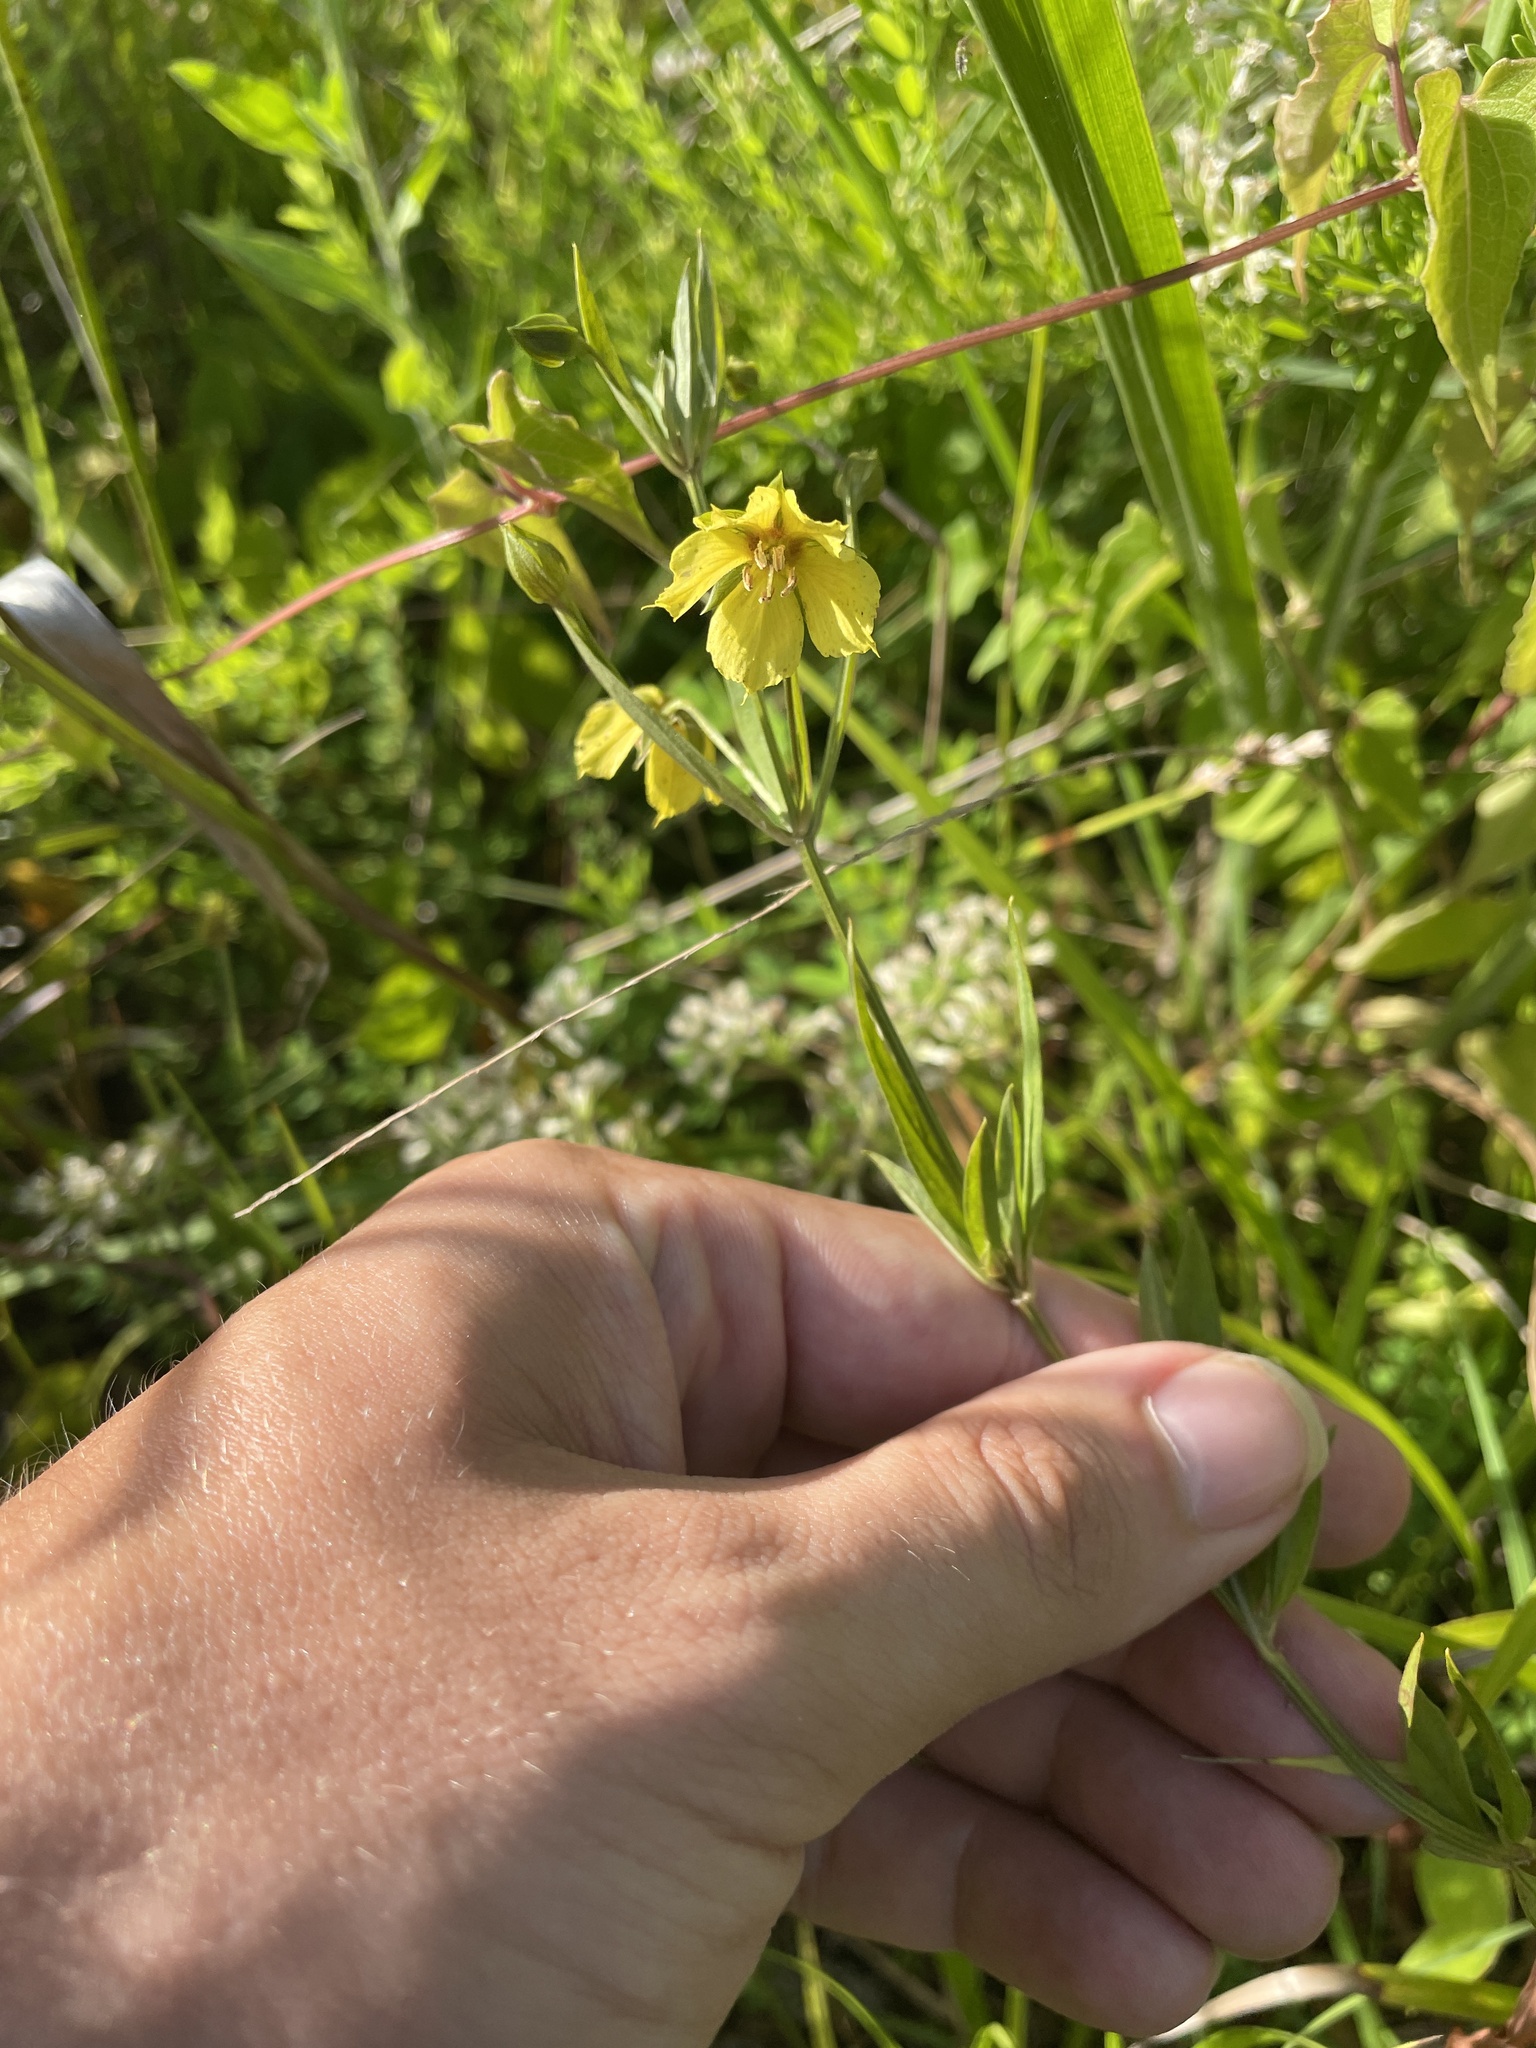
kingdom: Plantae
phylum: Tracheophyta
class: Magnoliopsida
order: Ericales
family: Primulaceae
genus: Lysimachia
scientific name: Lysimachia hybrida
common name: Lowland loosestrife
